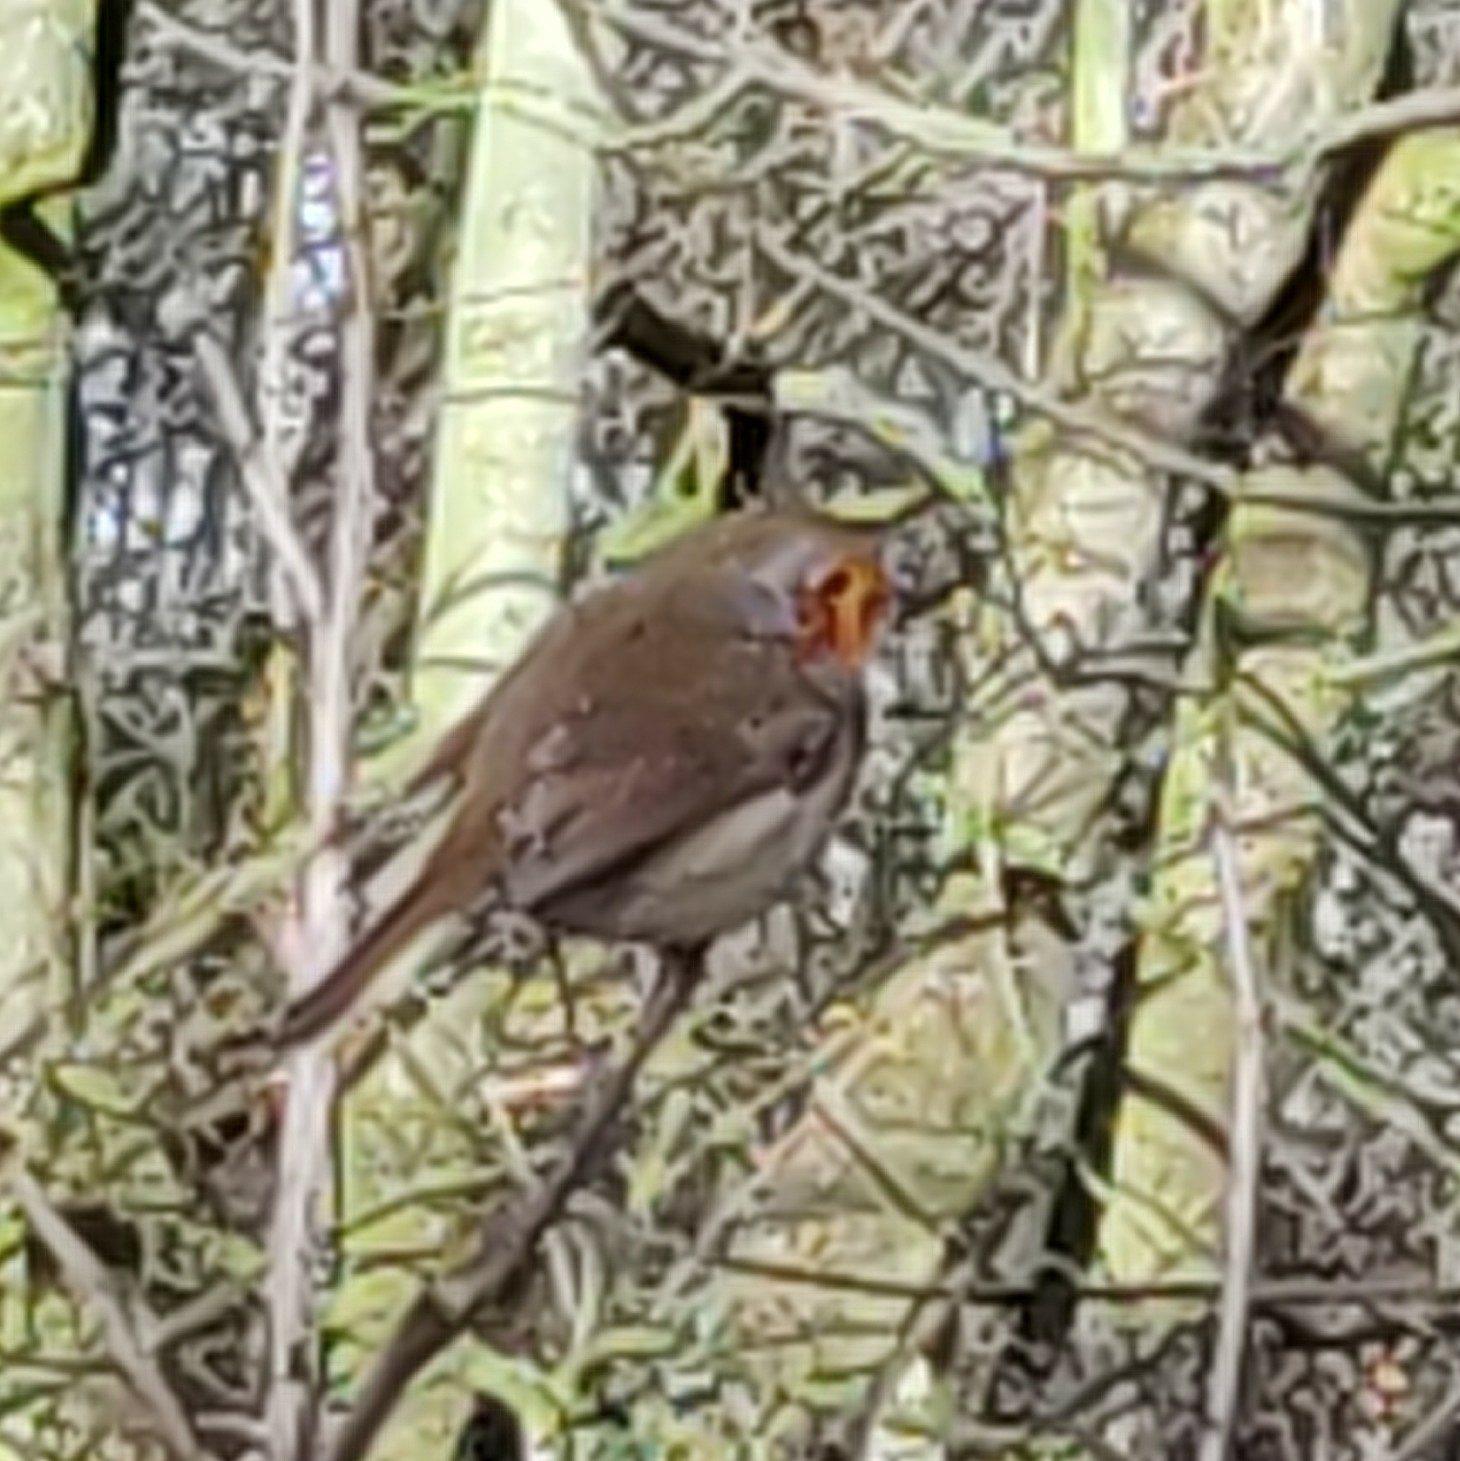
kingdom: Animalia
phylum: Chordata
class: Aves
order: Passeriformes
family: Muscicapidae
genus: Erithacus
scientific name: Erithacus rubecula
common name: European robin
